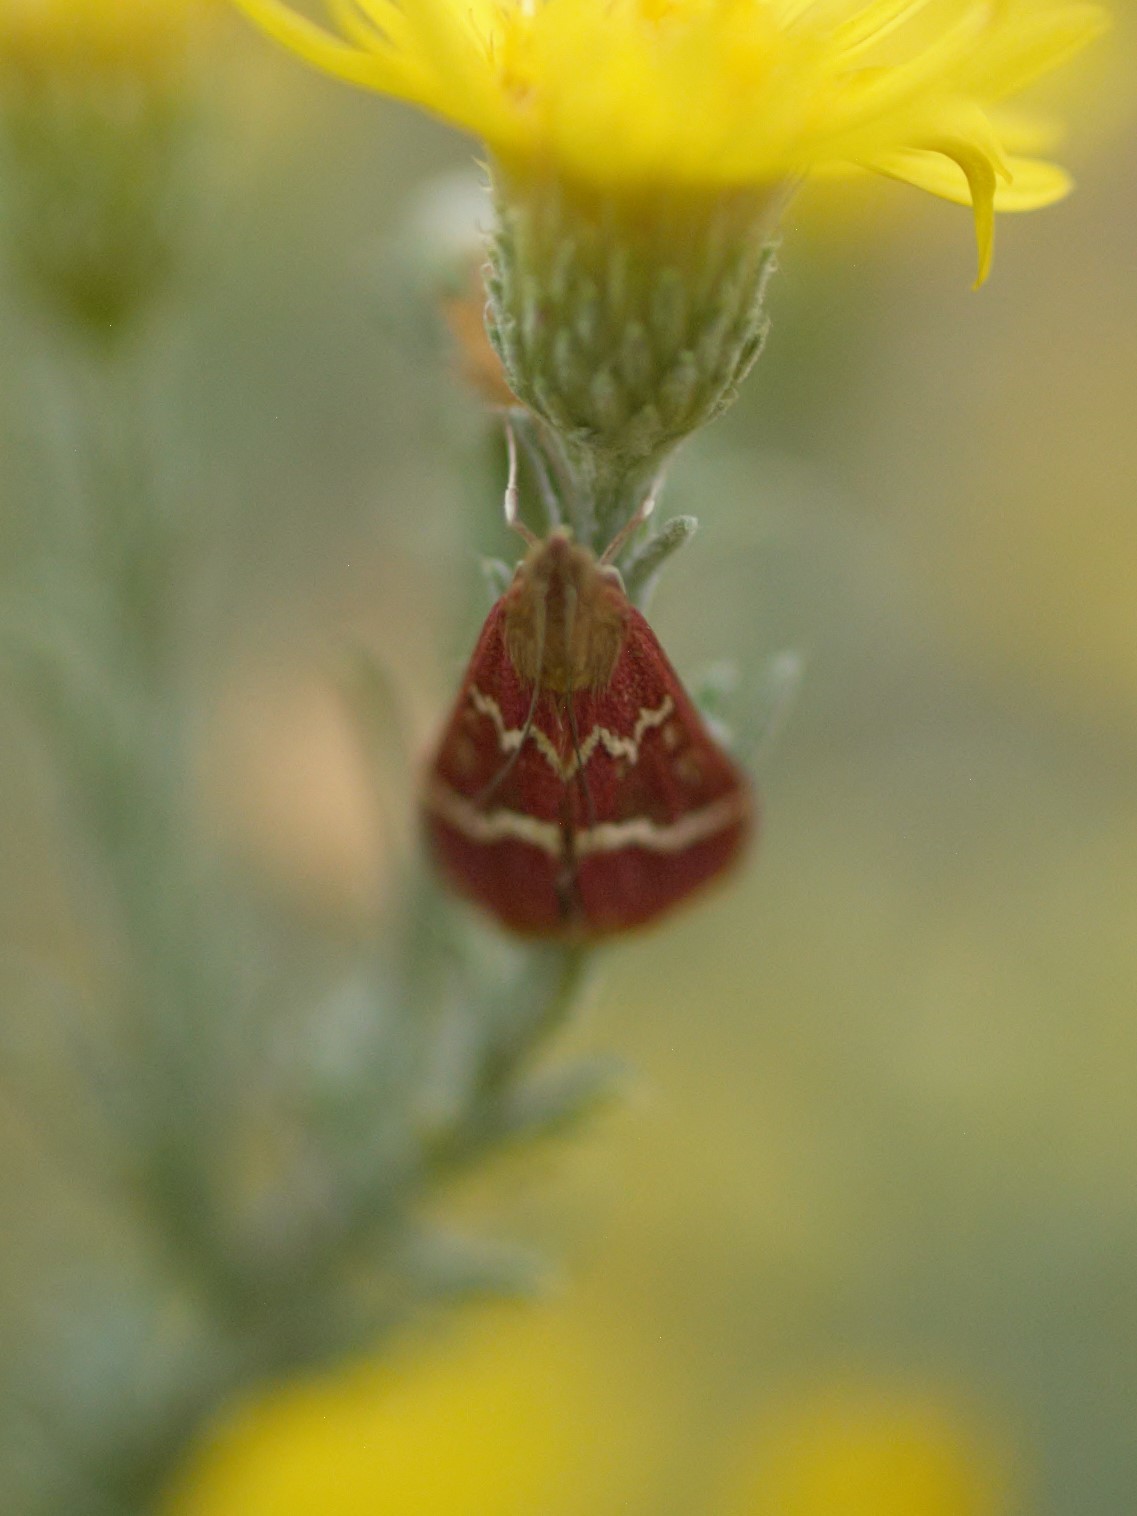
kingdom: Animalia
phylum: Arthropoda
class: Insecta
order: Lepidoptera
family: Crambidae
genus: Pyrausta
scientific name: Pyrausta volupialis
